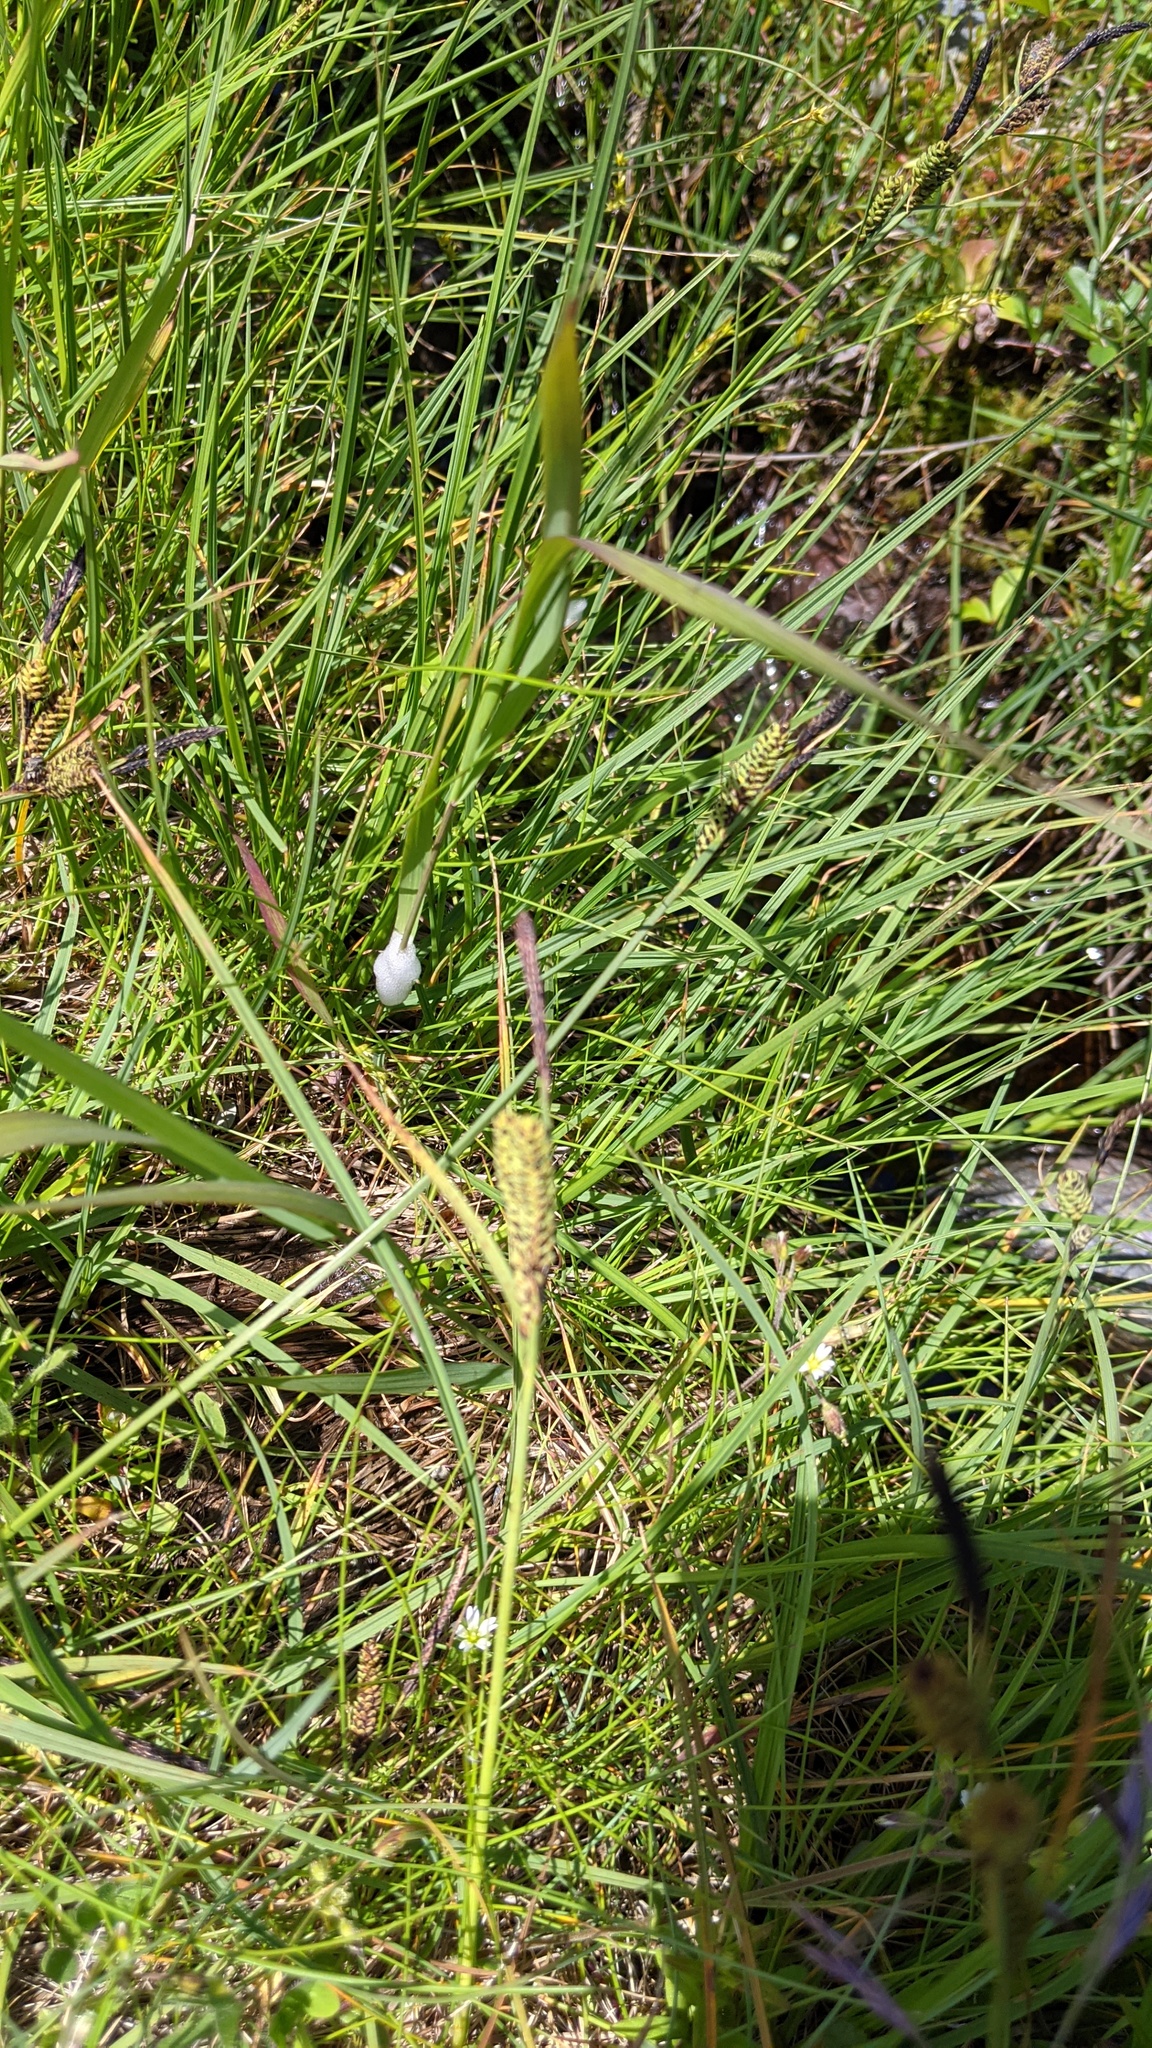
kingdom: Plantae
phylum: Tracheophyta
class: Liliopsida
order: Poales
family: Cyperaceae
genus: Carex
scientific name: Carex nigra
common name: Common sedge
